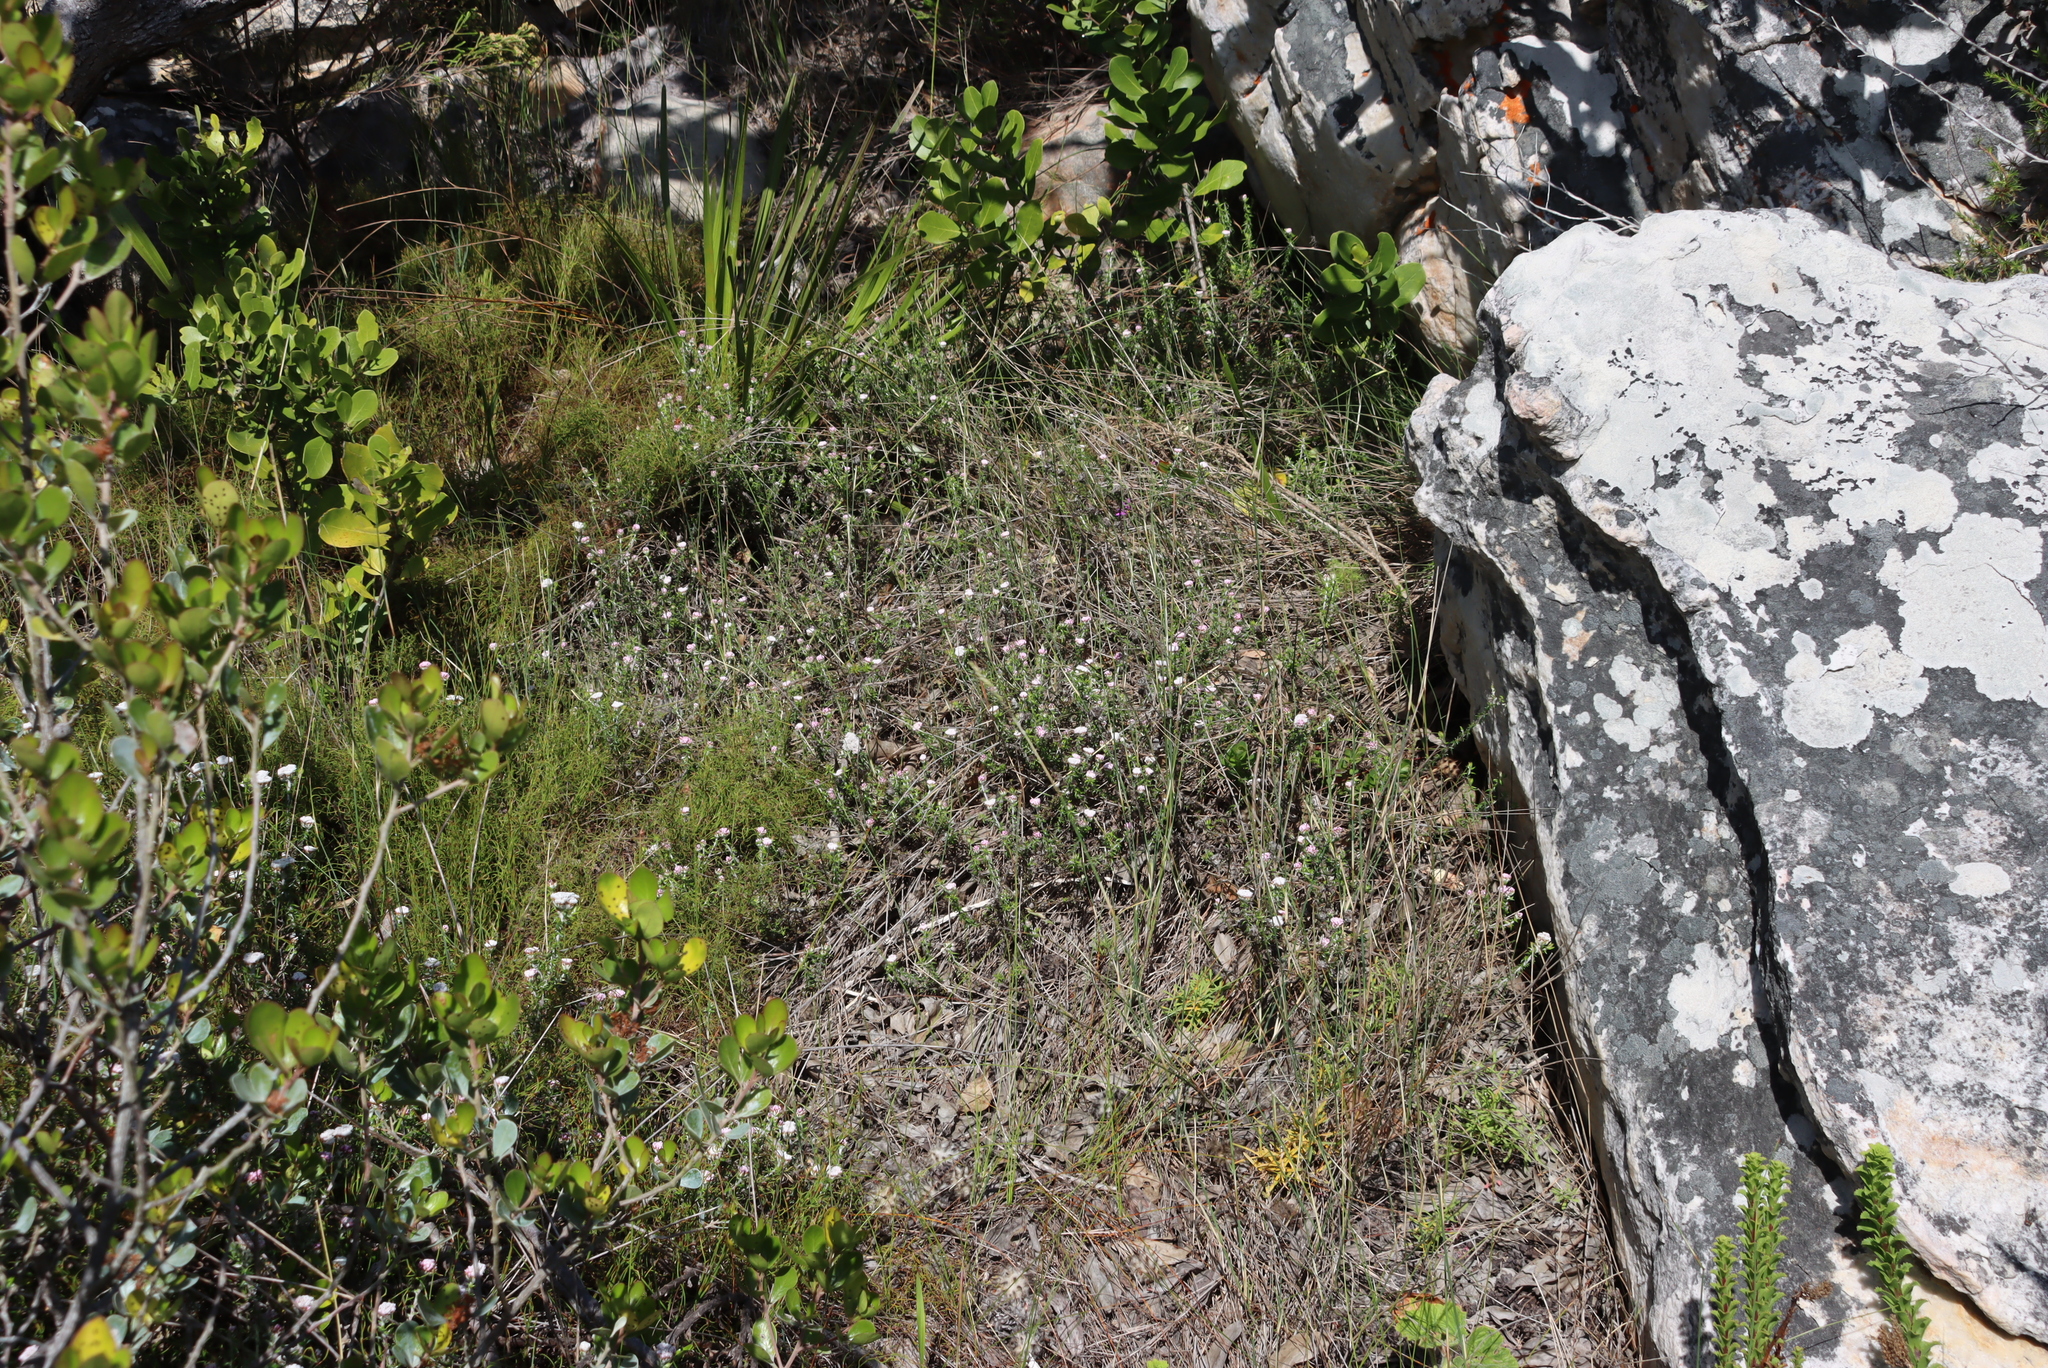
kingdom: Plantae
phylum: Tracheophyta
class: Magnoliopsida
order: Asterales
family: Asteraceae
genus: Metalasia
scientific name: Metalasia divergens
